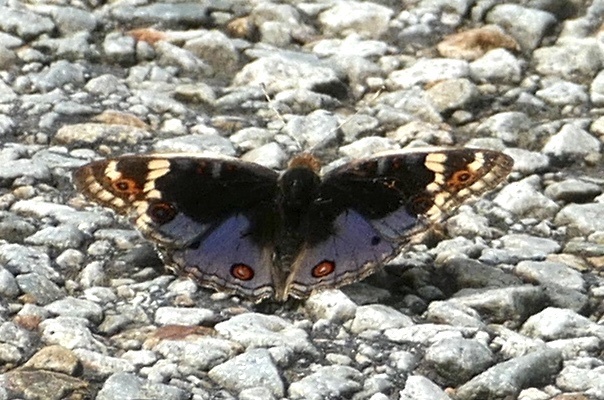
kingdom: Animalia
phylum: Arthropoda
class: Insecta
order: Lepidoptera
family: Nymphalidae
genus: Junonia
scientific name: Junonia orithya
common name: Blue pansy
